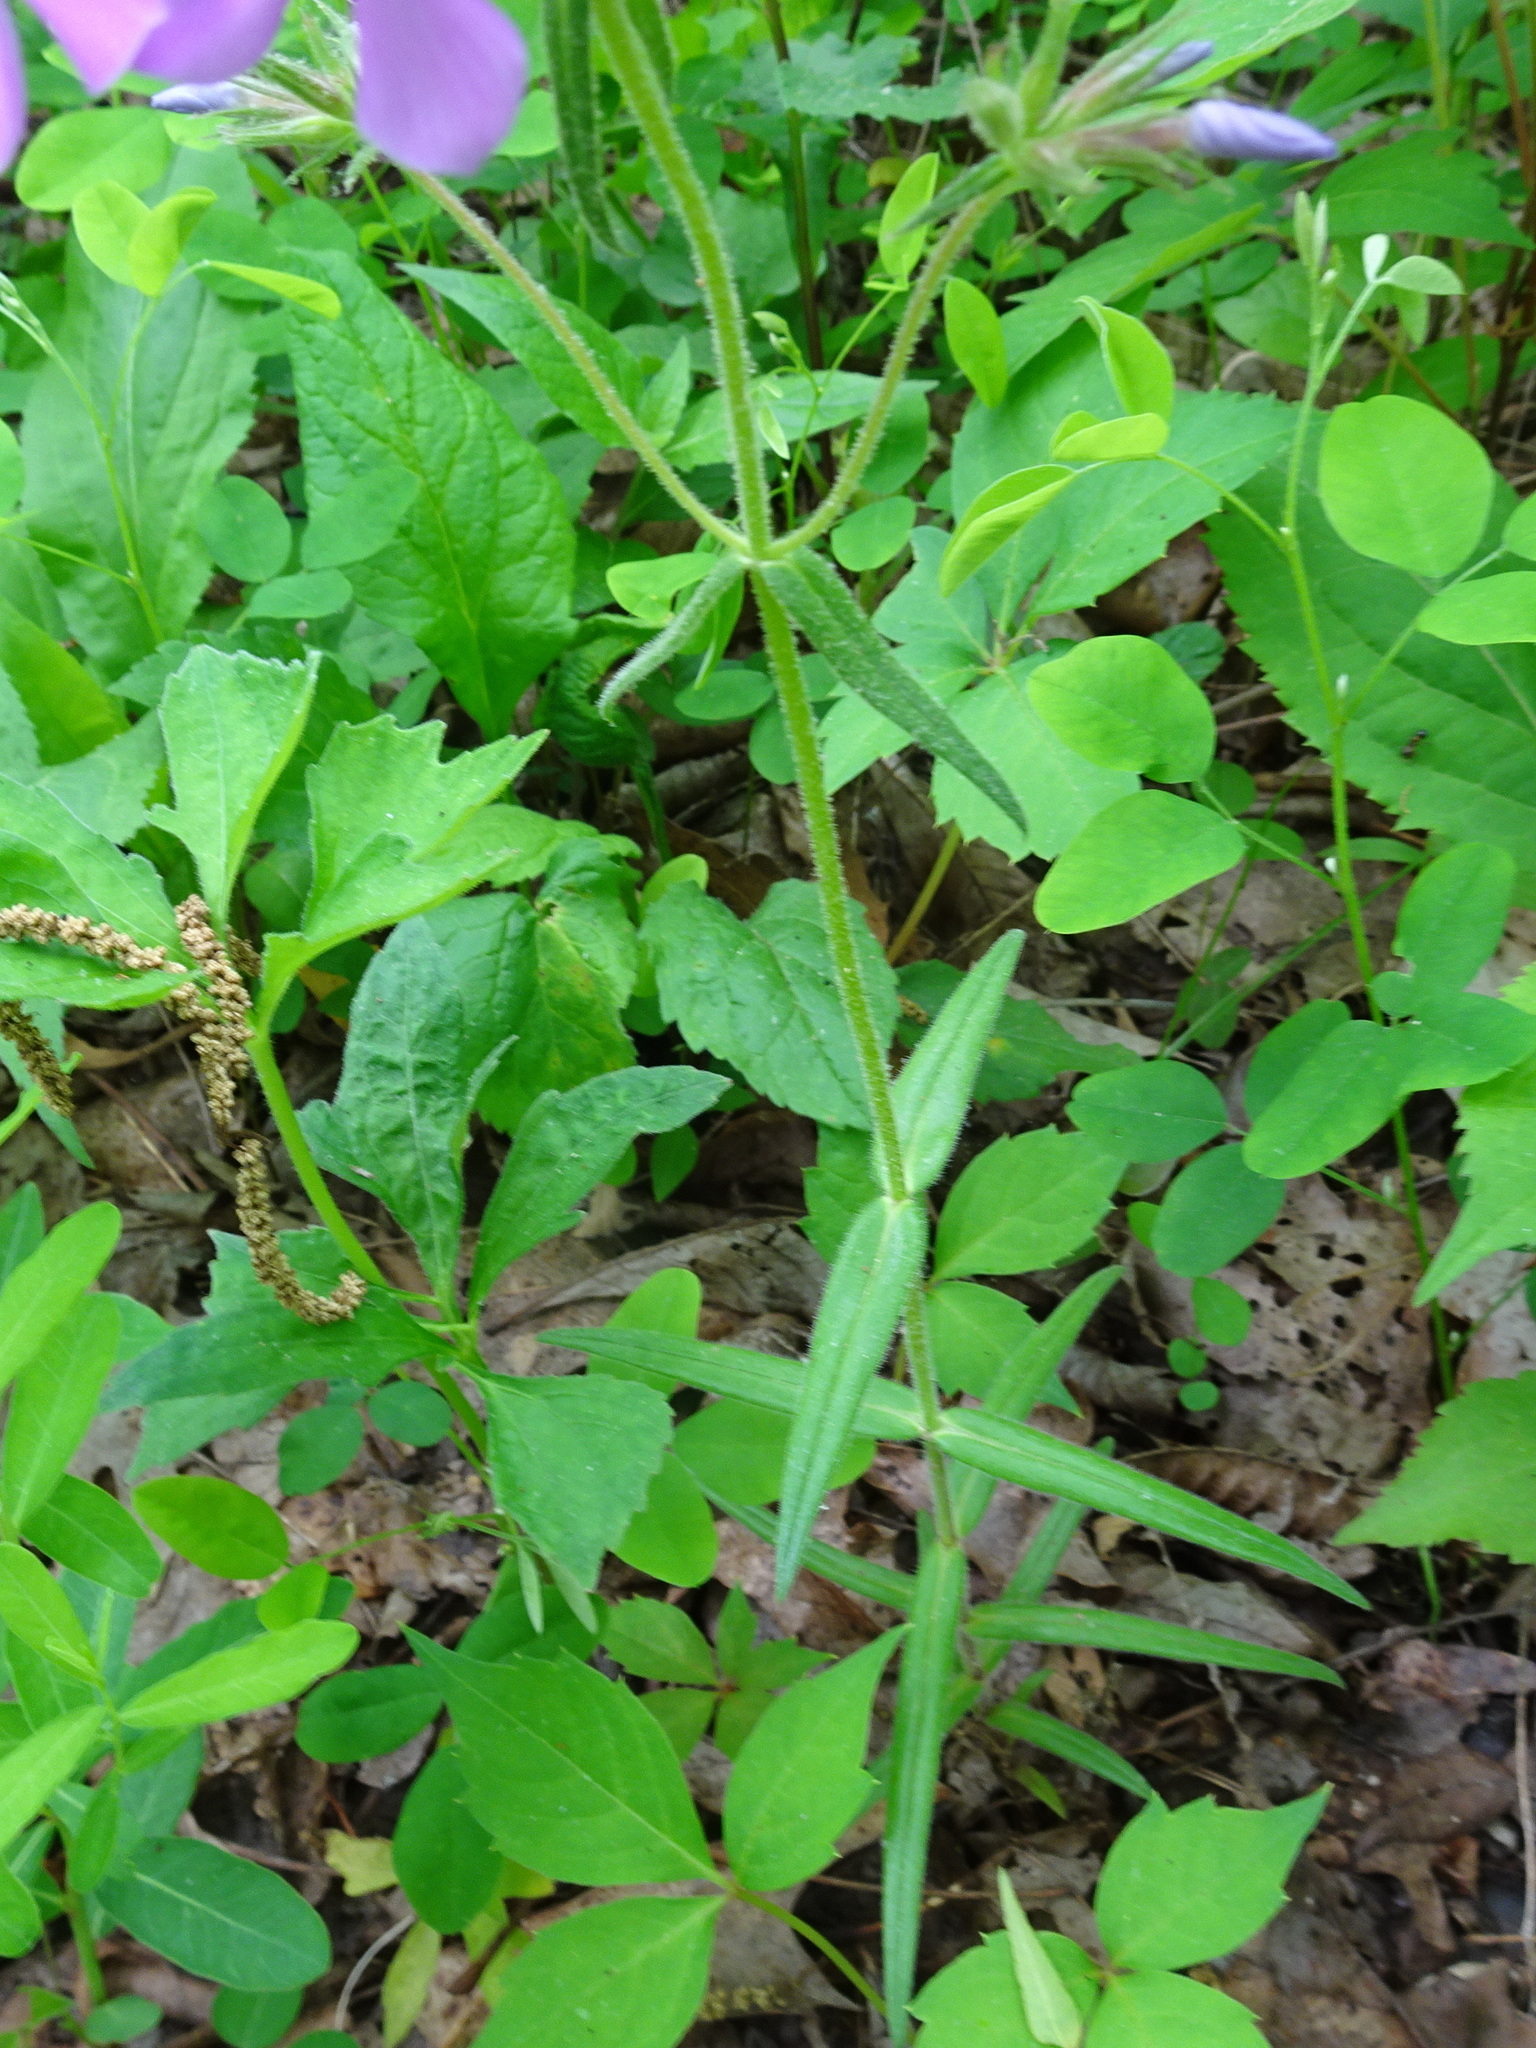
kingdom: Plantae
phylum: Tracheophyta
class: Magnoliopsida
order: Ericales
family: Polemoniaceae
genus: Phlox
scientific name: Phlox pilosa
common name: Prairie phlox
